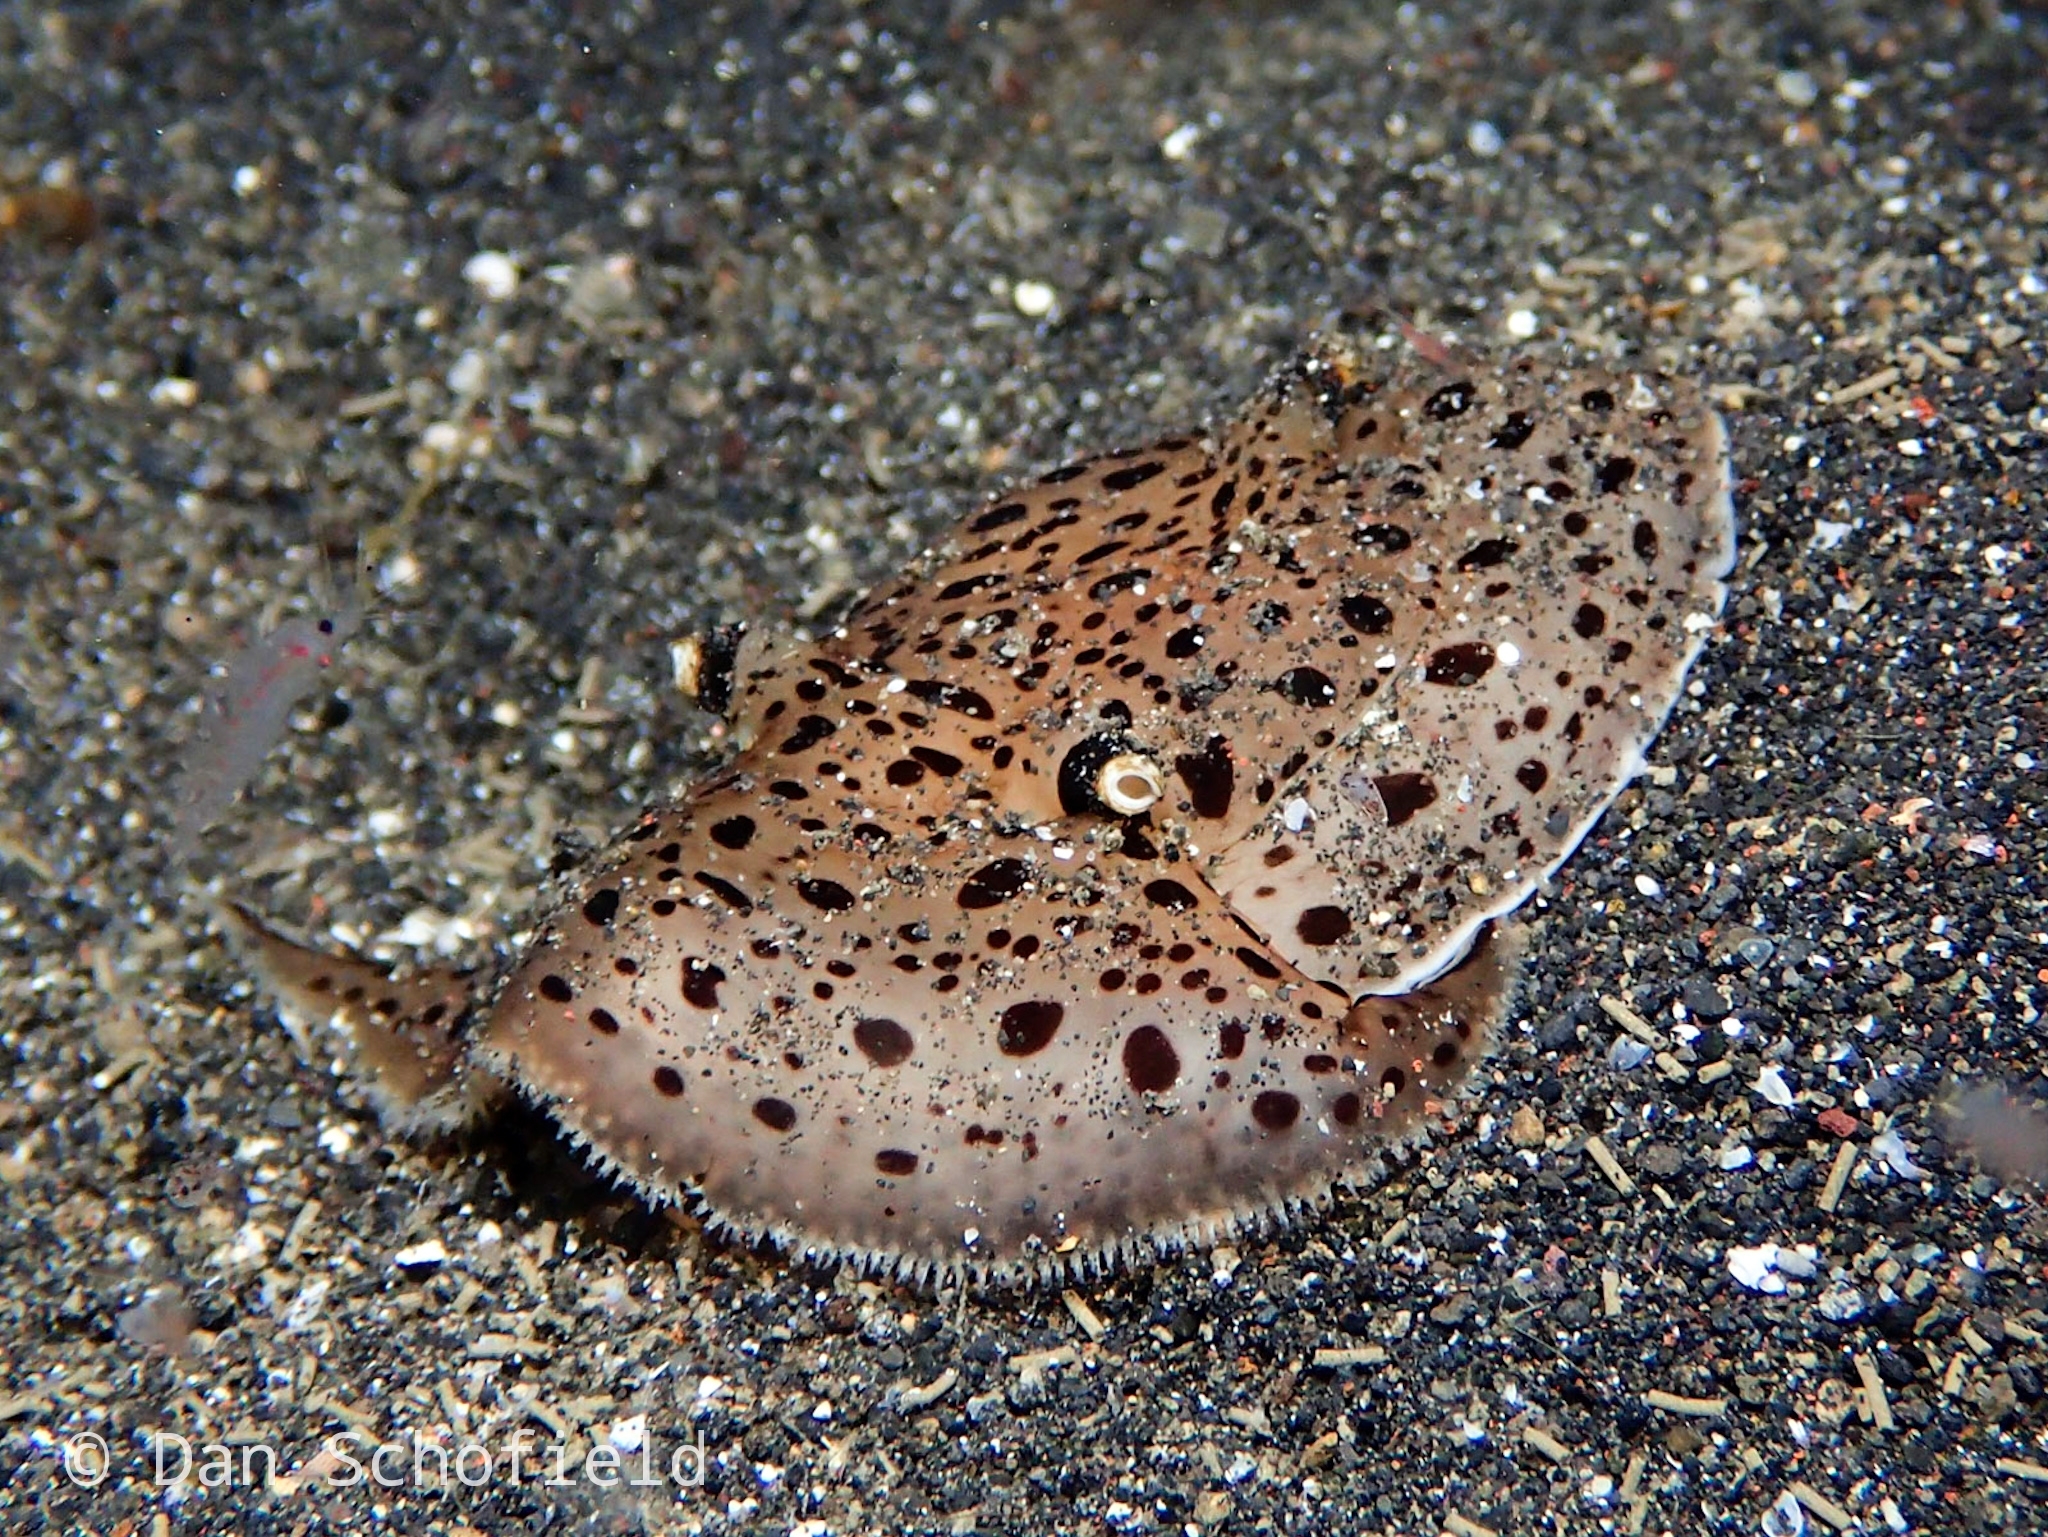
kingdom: Animalia
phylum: Mollusca
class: Gastropoda
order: Pleurobranchida
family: Pleurobranchaeidae
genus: Euselenops
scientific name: Euselenops luniceps
